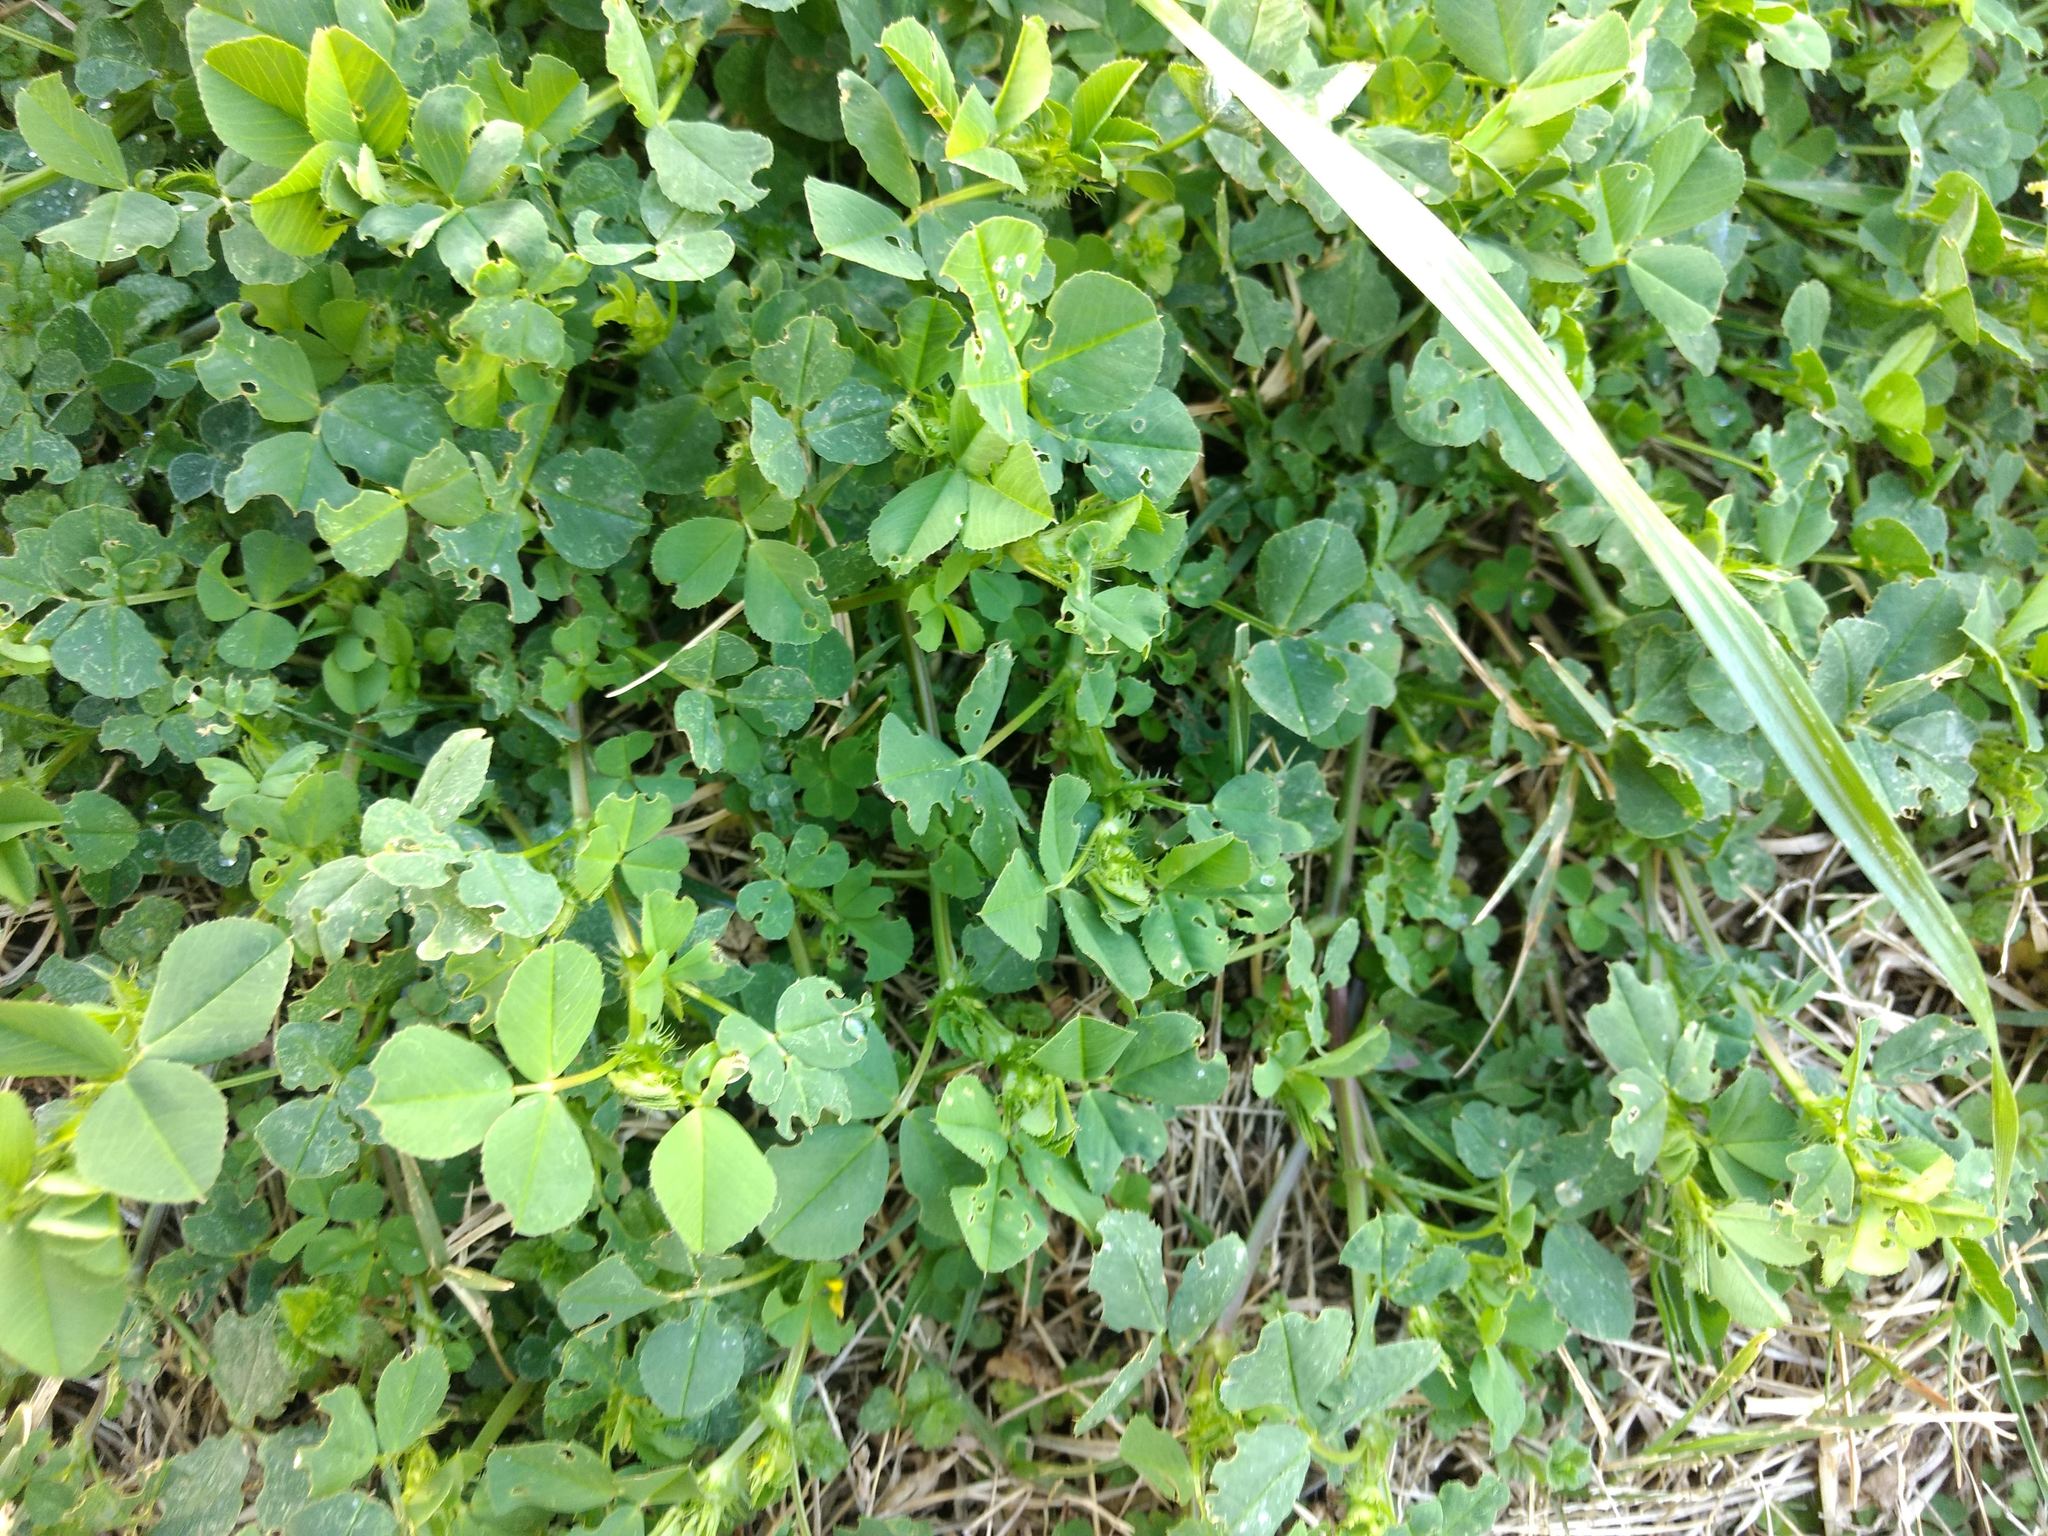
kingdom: Plantae
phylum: Tracheophyta
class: Magnoliopsida
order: Fabales
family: Fabaceae
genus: Medicago
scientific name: Medicago polymorpha
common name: Burclover
